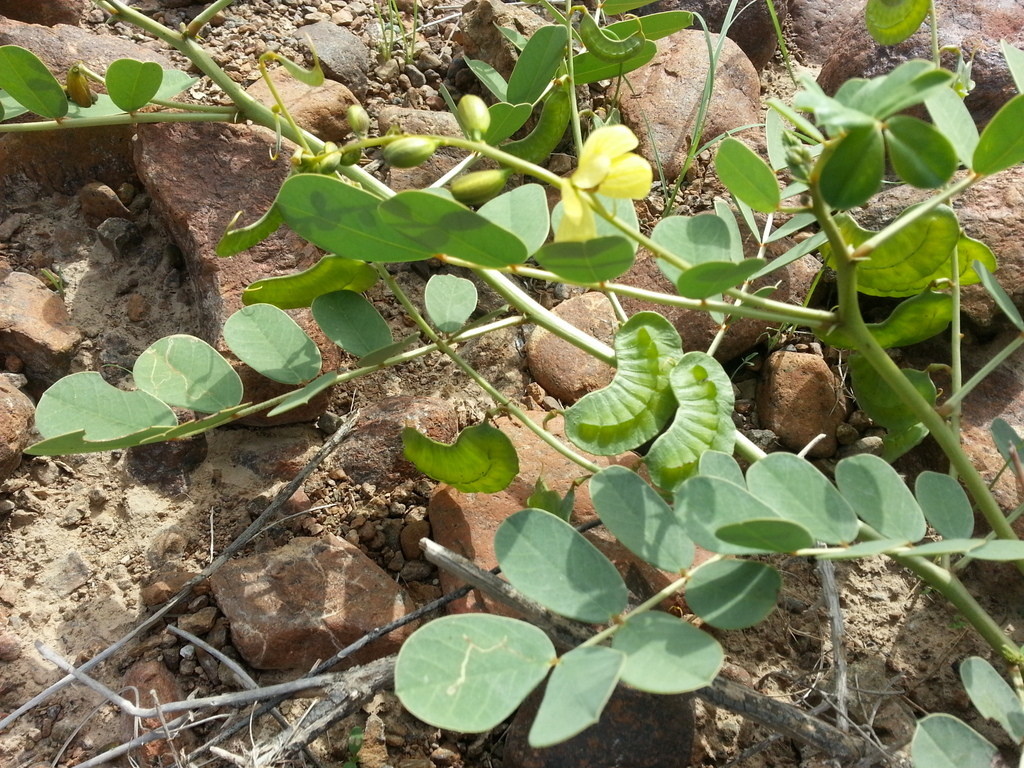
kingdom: Plantae
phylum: Tracheophyta
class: Magnoliopsida
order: Fabales
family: Fabaceae
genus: Senna
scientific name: Senna italica
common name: Port royal senna
